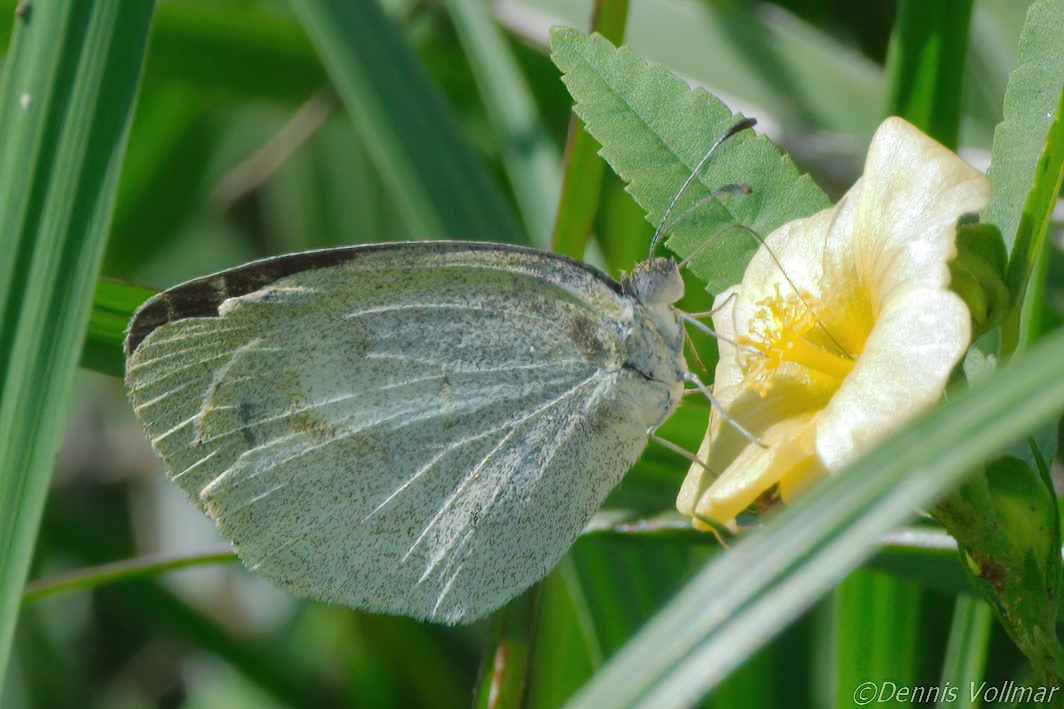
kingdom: Animalia
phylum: Arthropoda
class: Insecta
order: Lepidoptera
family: Pieridae
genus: Eurema
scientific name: Eurema daira
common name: Barred sulphur
